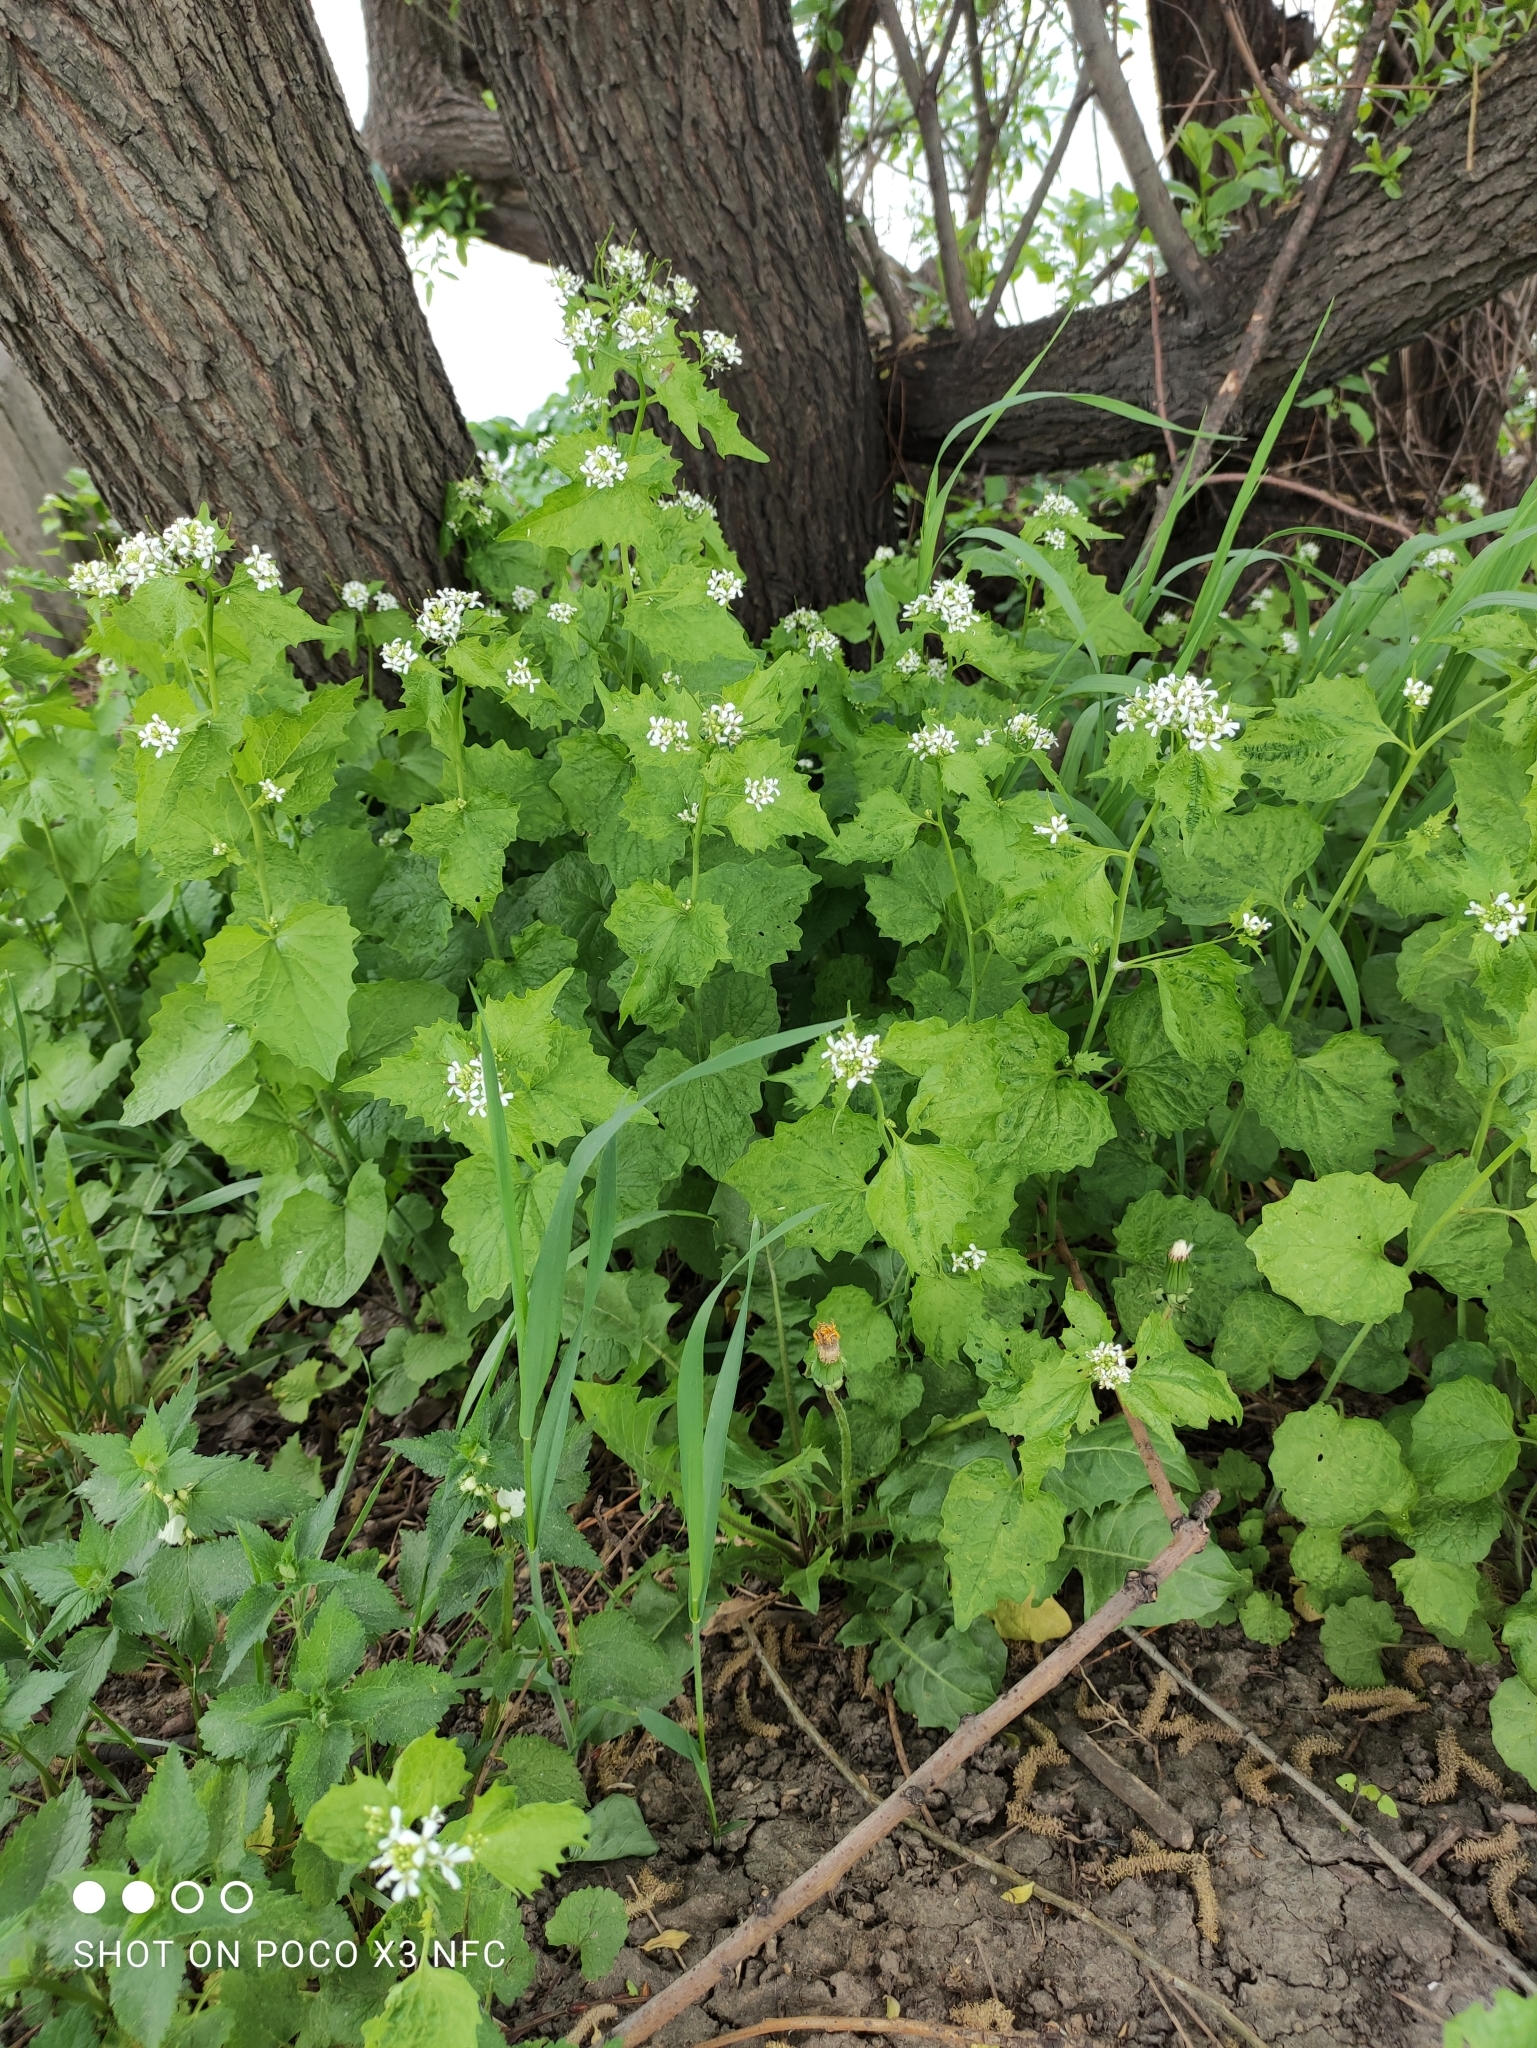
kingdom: Plantae
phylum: Tracheophyta
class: Magnoliopsida
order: Brassicales
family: Brassicaceae
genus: Alliaria
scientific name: Alliaria petiolata
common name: Garlic mustard
